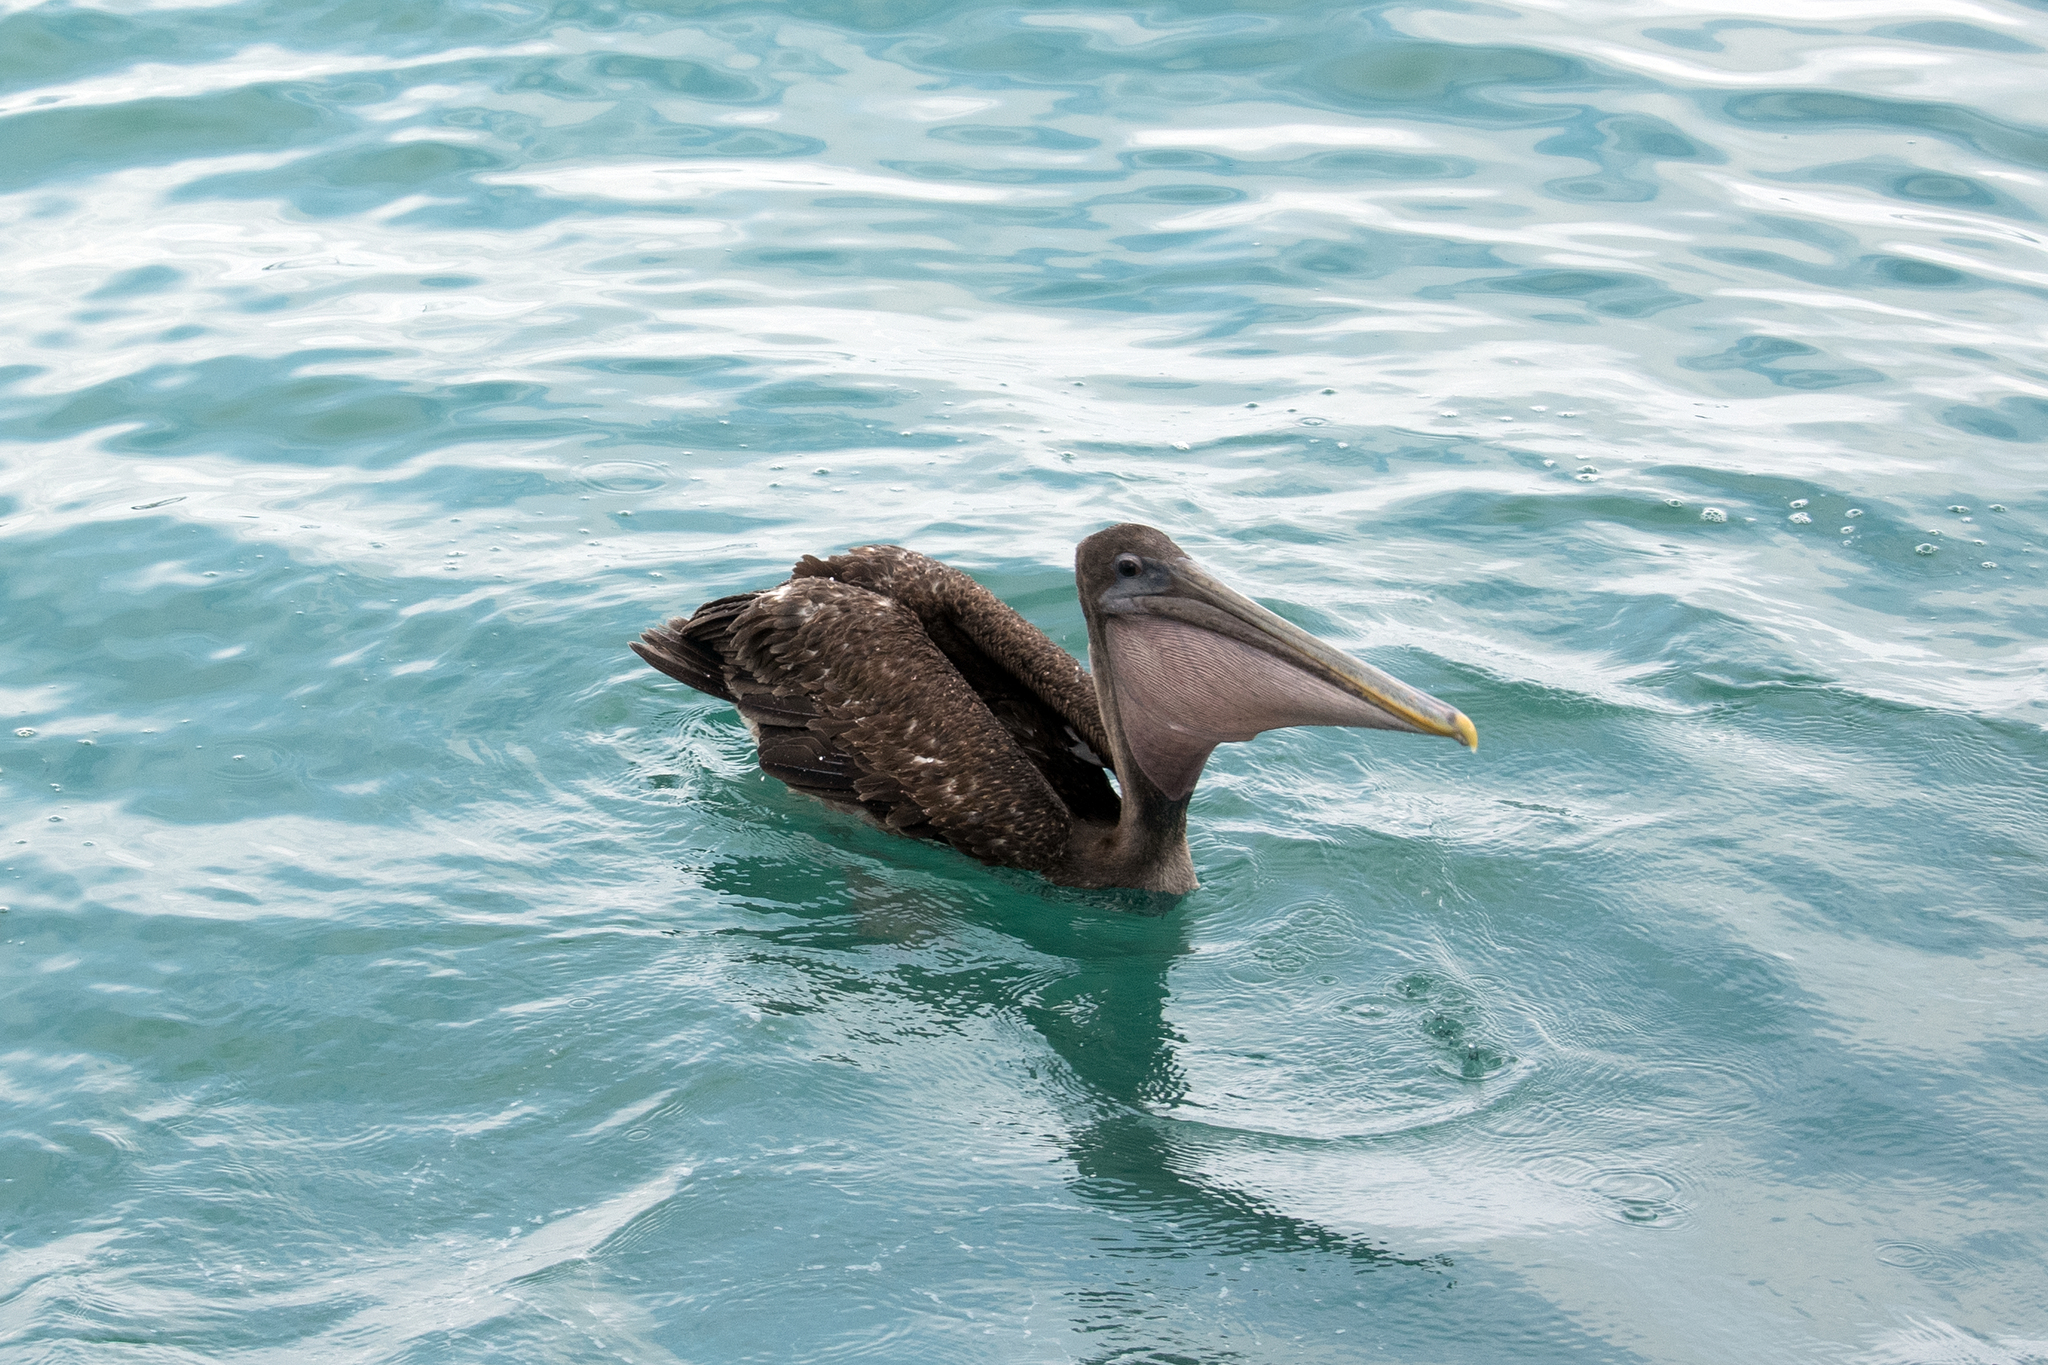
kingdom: Animalia
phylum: Chordata
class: Aves
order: Pelecaniformes
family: Pelecanidae
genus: Pelecanus
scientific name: Pelecanus occidentalis
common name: Brown pelican
